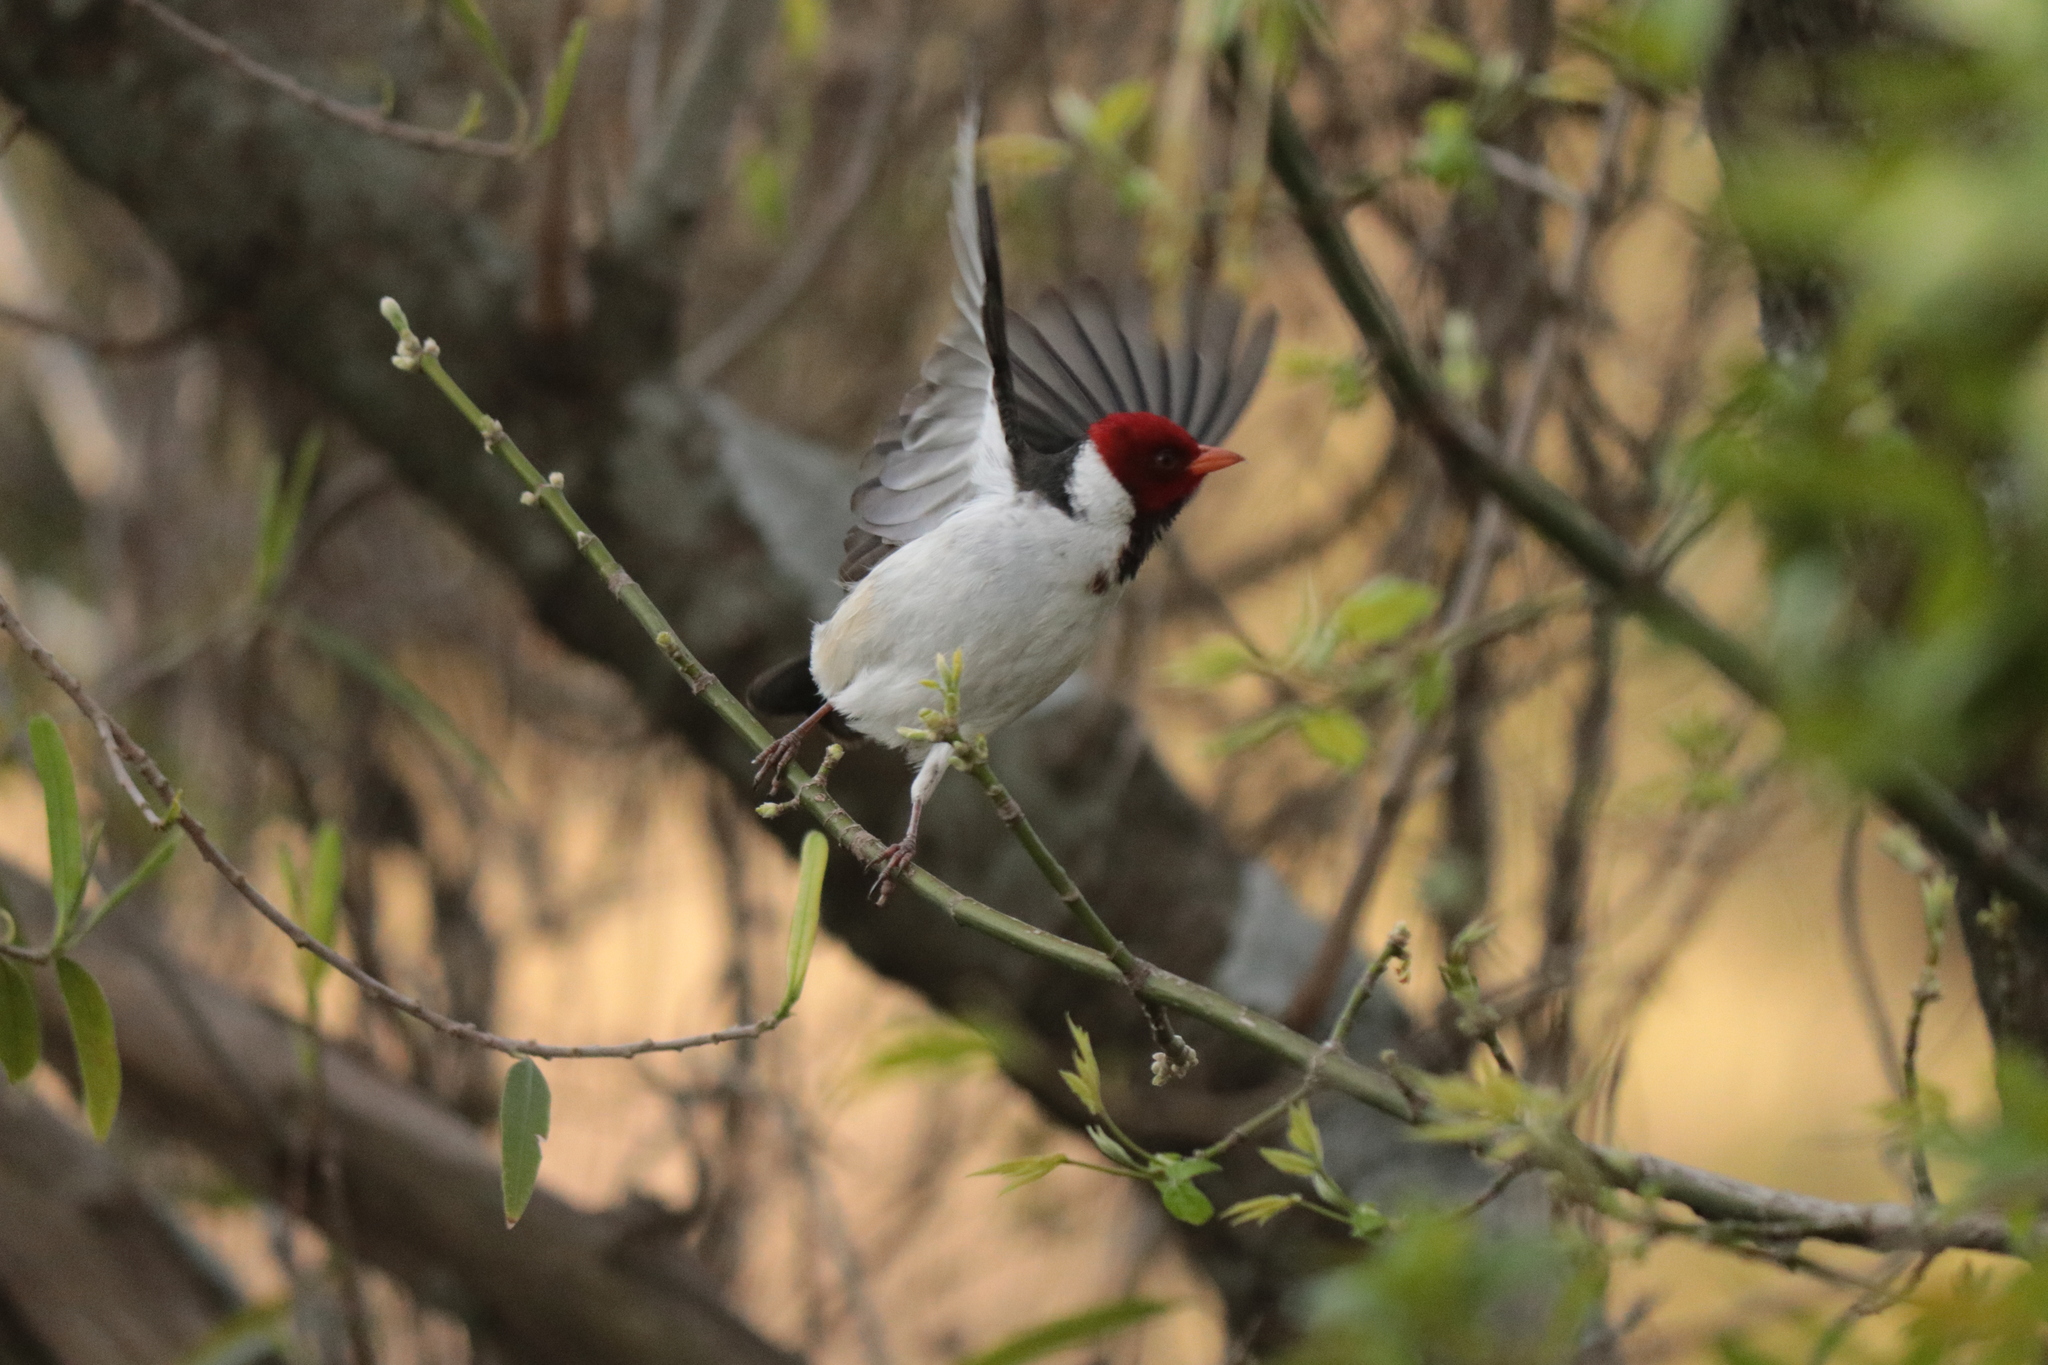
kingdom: Animalia
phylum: Chordata
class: Aves
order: Passeriformes
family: Thraupidae
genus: Paroaria
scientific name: Paroaria capitata
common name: Yellow-billed cardinal
